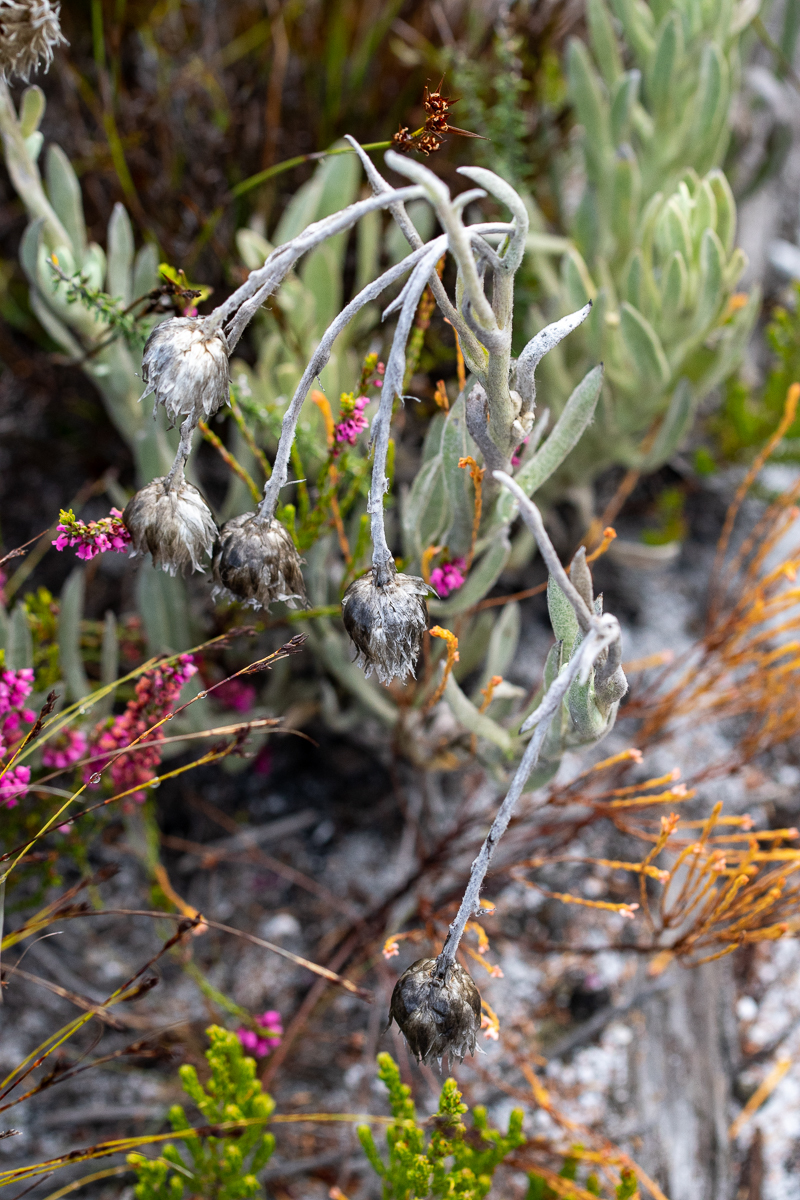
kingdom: Plantae
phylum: Tracheophyta
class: Magnoliopsida
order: Asterales
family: Asteraceae
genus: Syncarpha
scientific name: Syncarpha vestita
